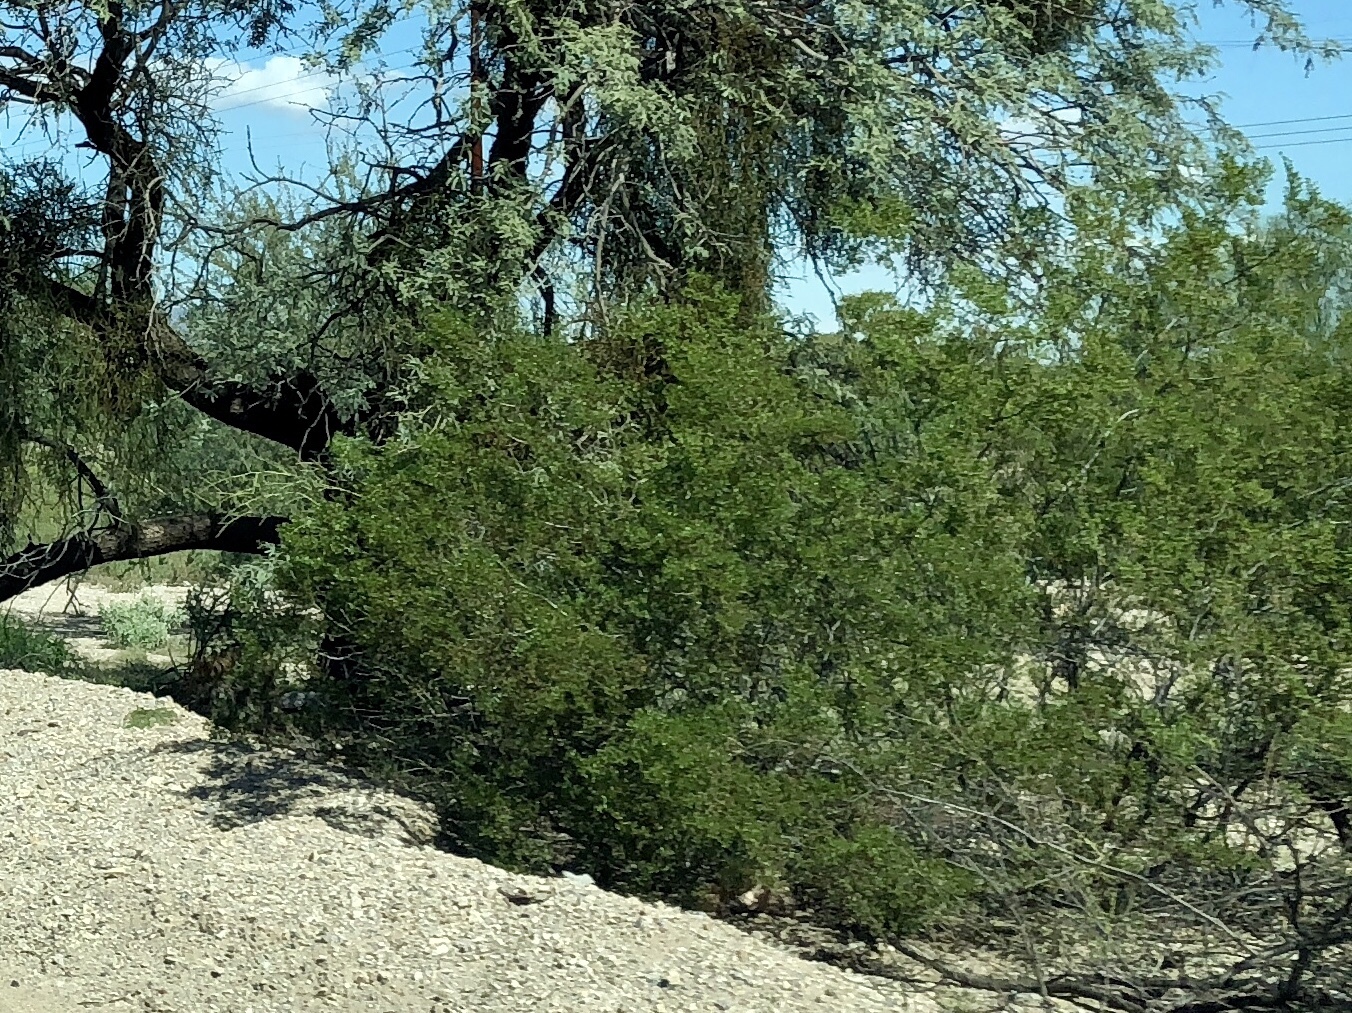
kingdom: Plantae
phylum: Tracheophyta
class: Magnoliopsida
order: Zygophyllales
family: Zygophyllaceae
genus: Larrea
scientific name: Larrea tridentata
